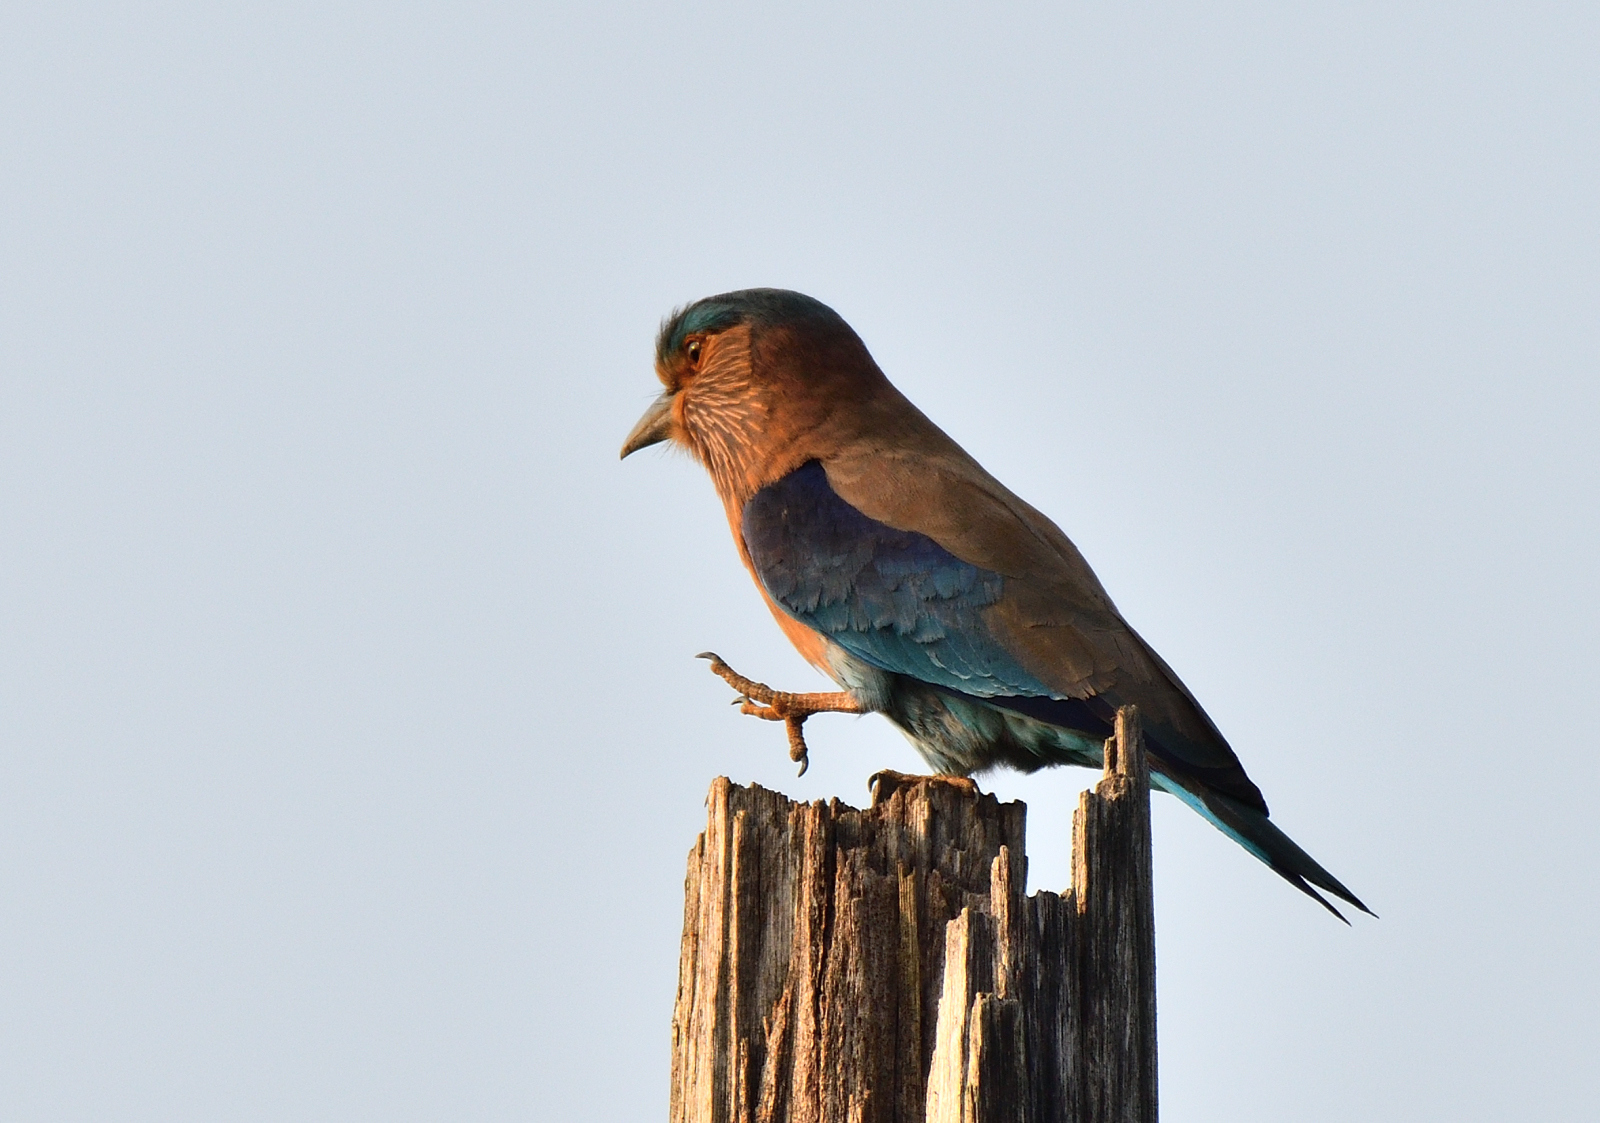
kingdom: Animalia
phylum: Chordata
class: Aves
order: Coraciiformes
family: Coraciidae
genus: Coracias
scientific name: Coracias benghalensis
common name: Indian roller
